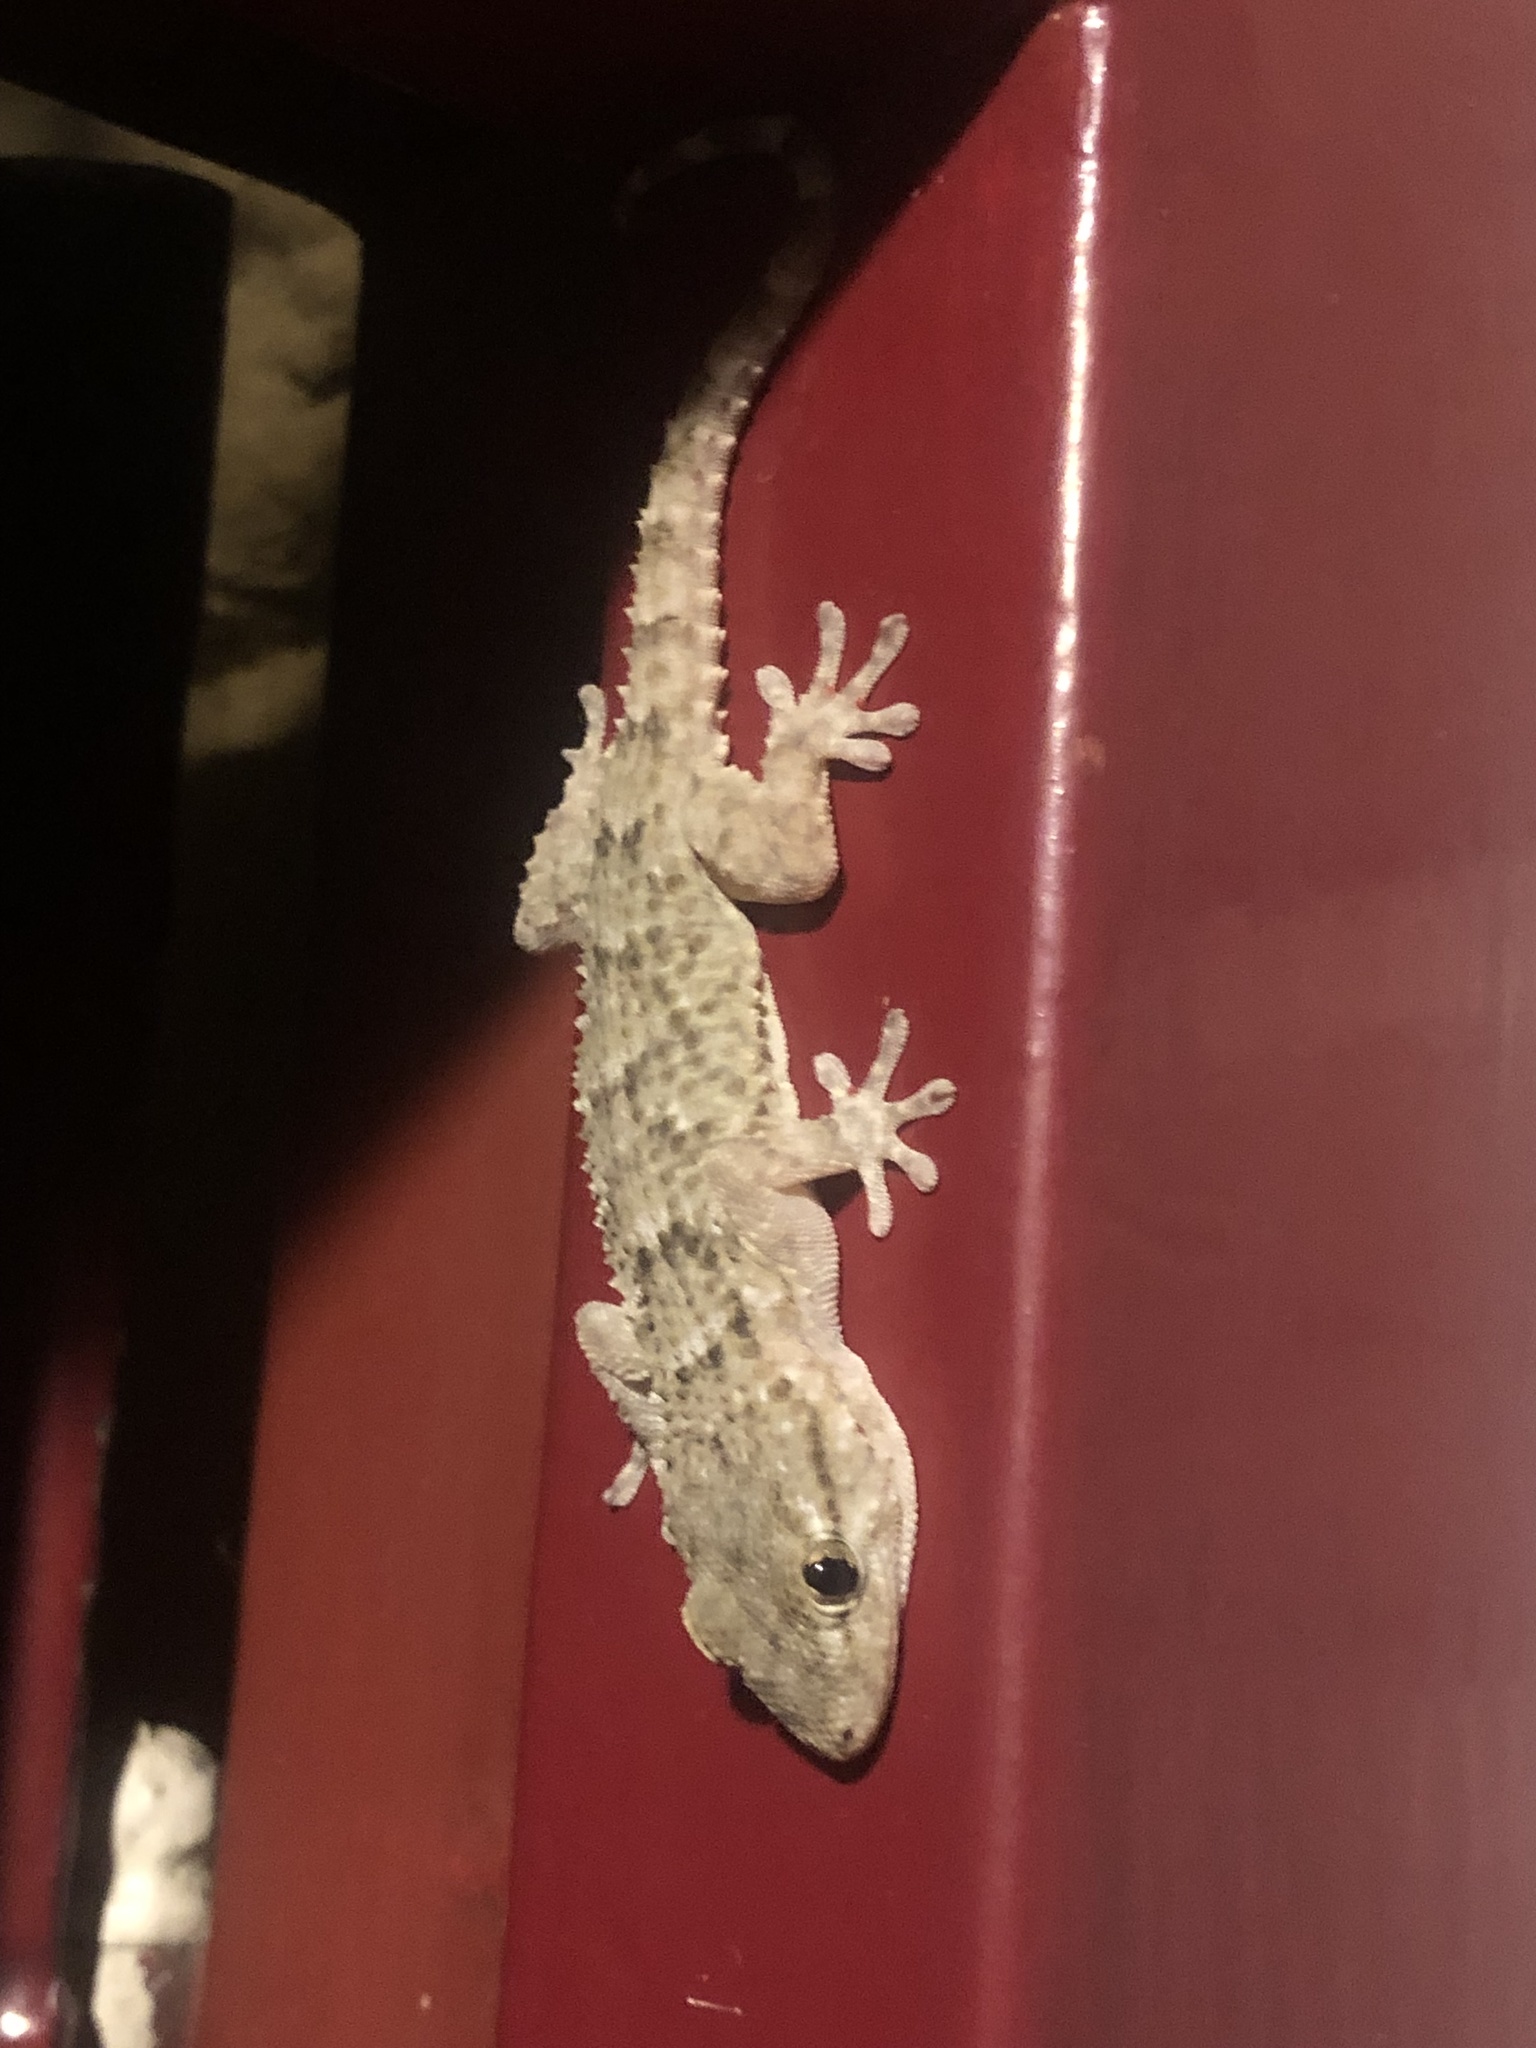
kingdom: Animalia
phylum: Chordata
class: Squamata
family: Phyllodactylidae
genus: Tarentola
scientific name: Tarentola mauritanica
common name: Moorish gecko
